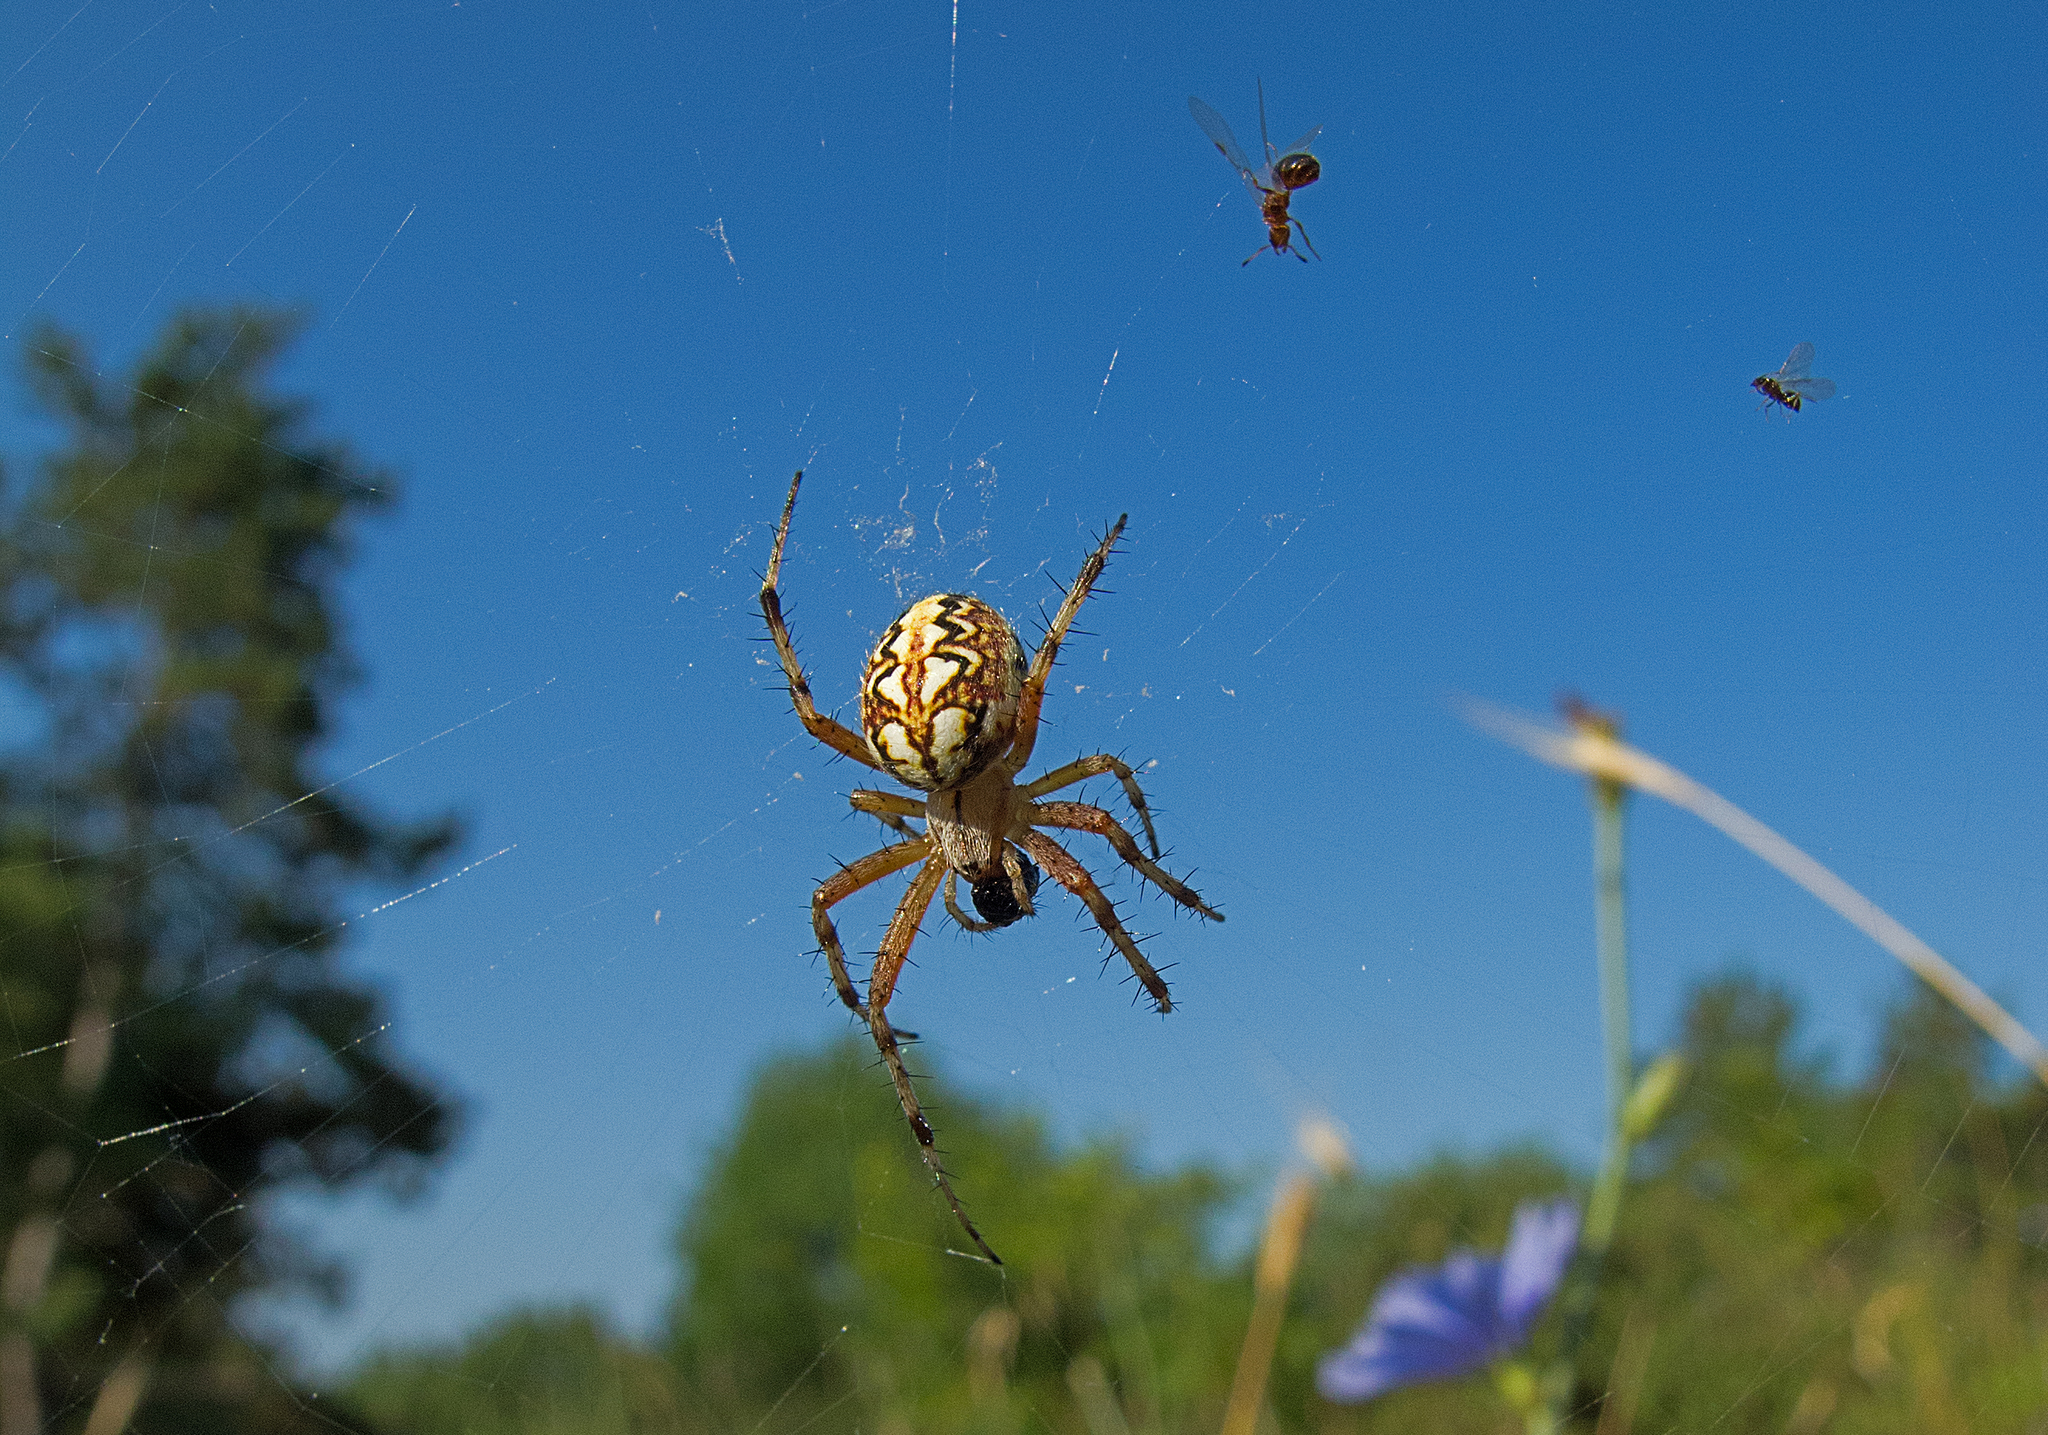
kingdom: Animalia
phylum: Arthropoda
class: Arachnida
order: Araneae
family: Araneidae
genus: Neoscona
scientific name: Neoscona adianta
